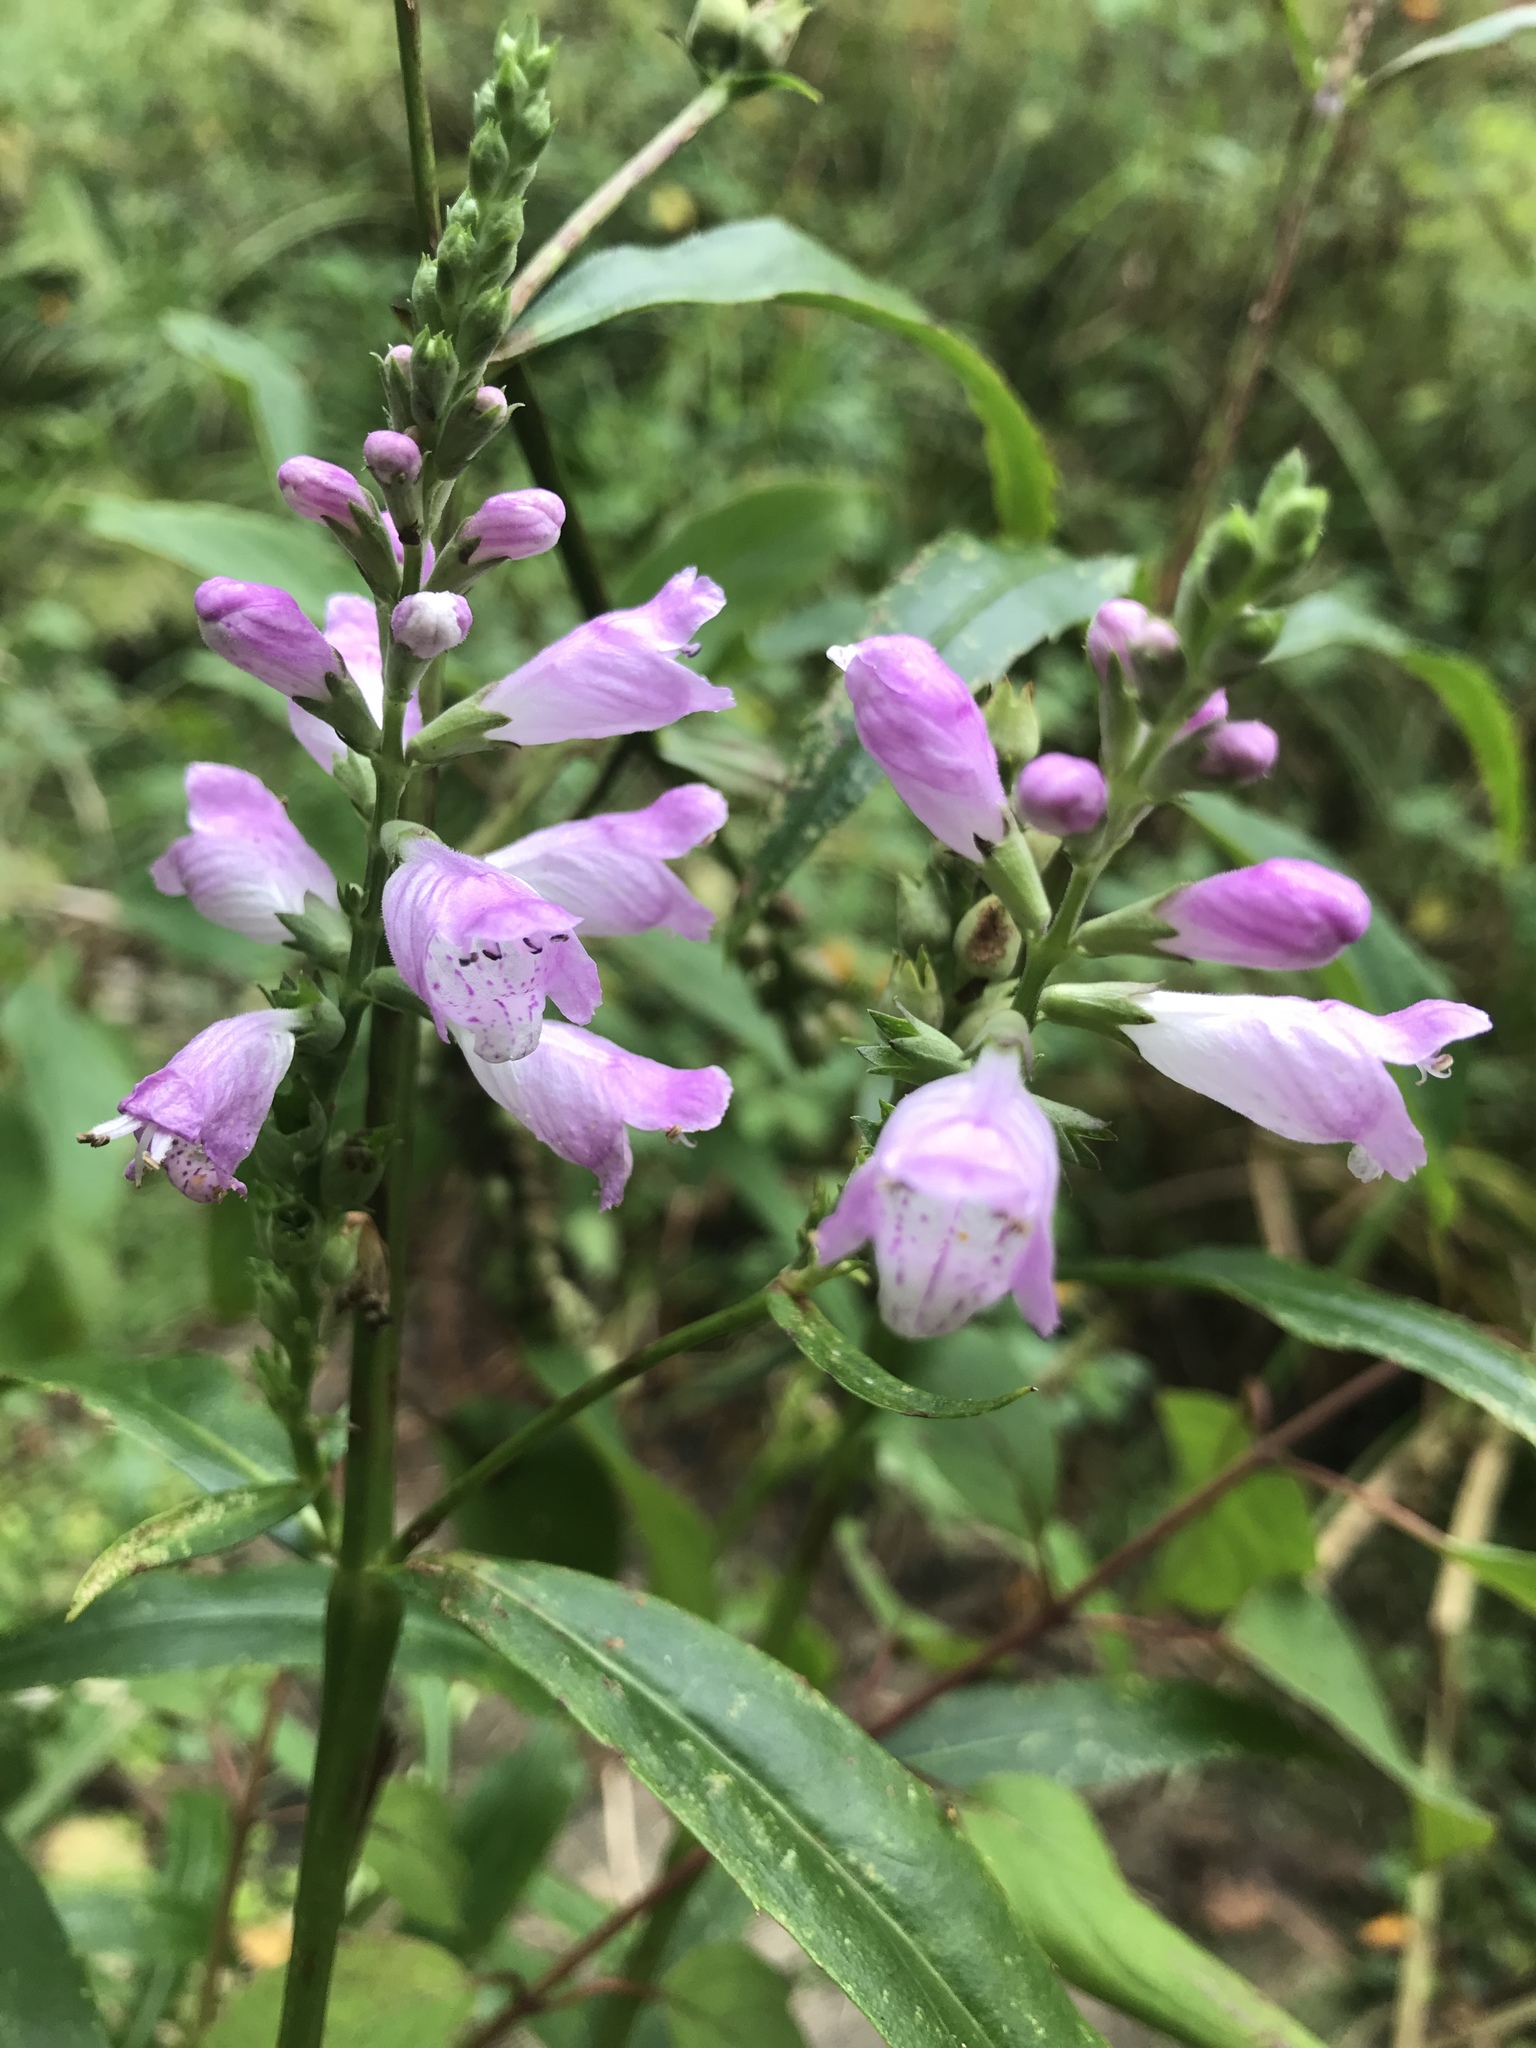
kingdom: Plantae
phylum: Tracheophyta
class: Magnoliopsida
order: Lamiales
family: Lamiaceae
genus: Physostegia
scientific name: Physostegia virginiana
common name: Obedient-plant
